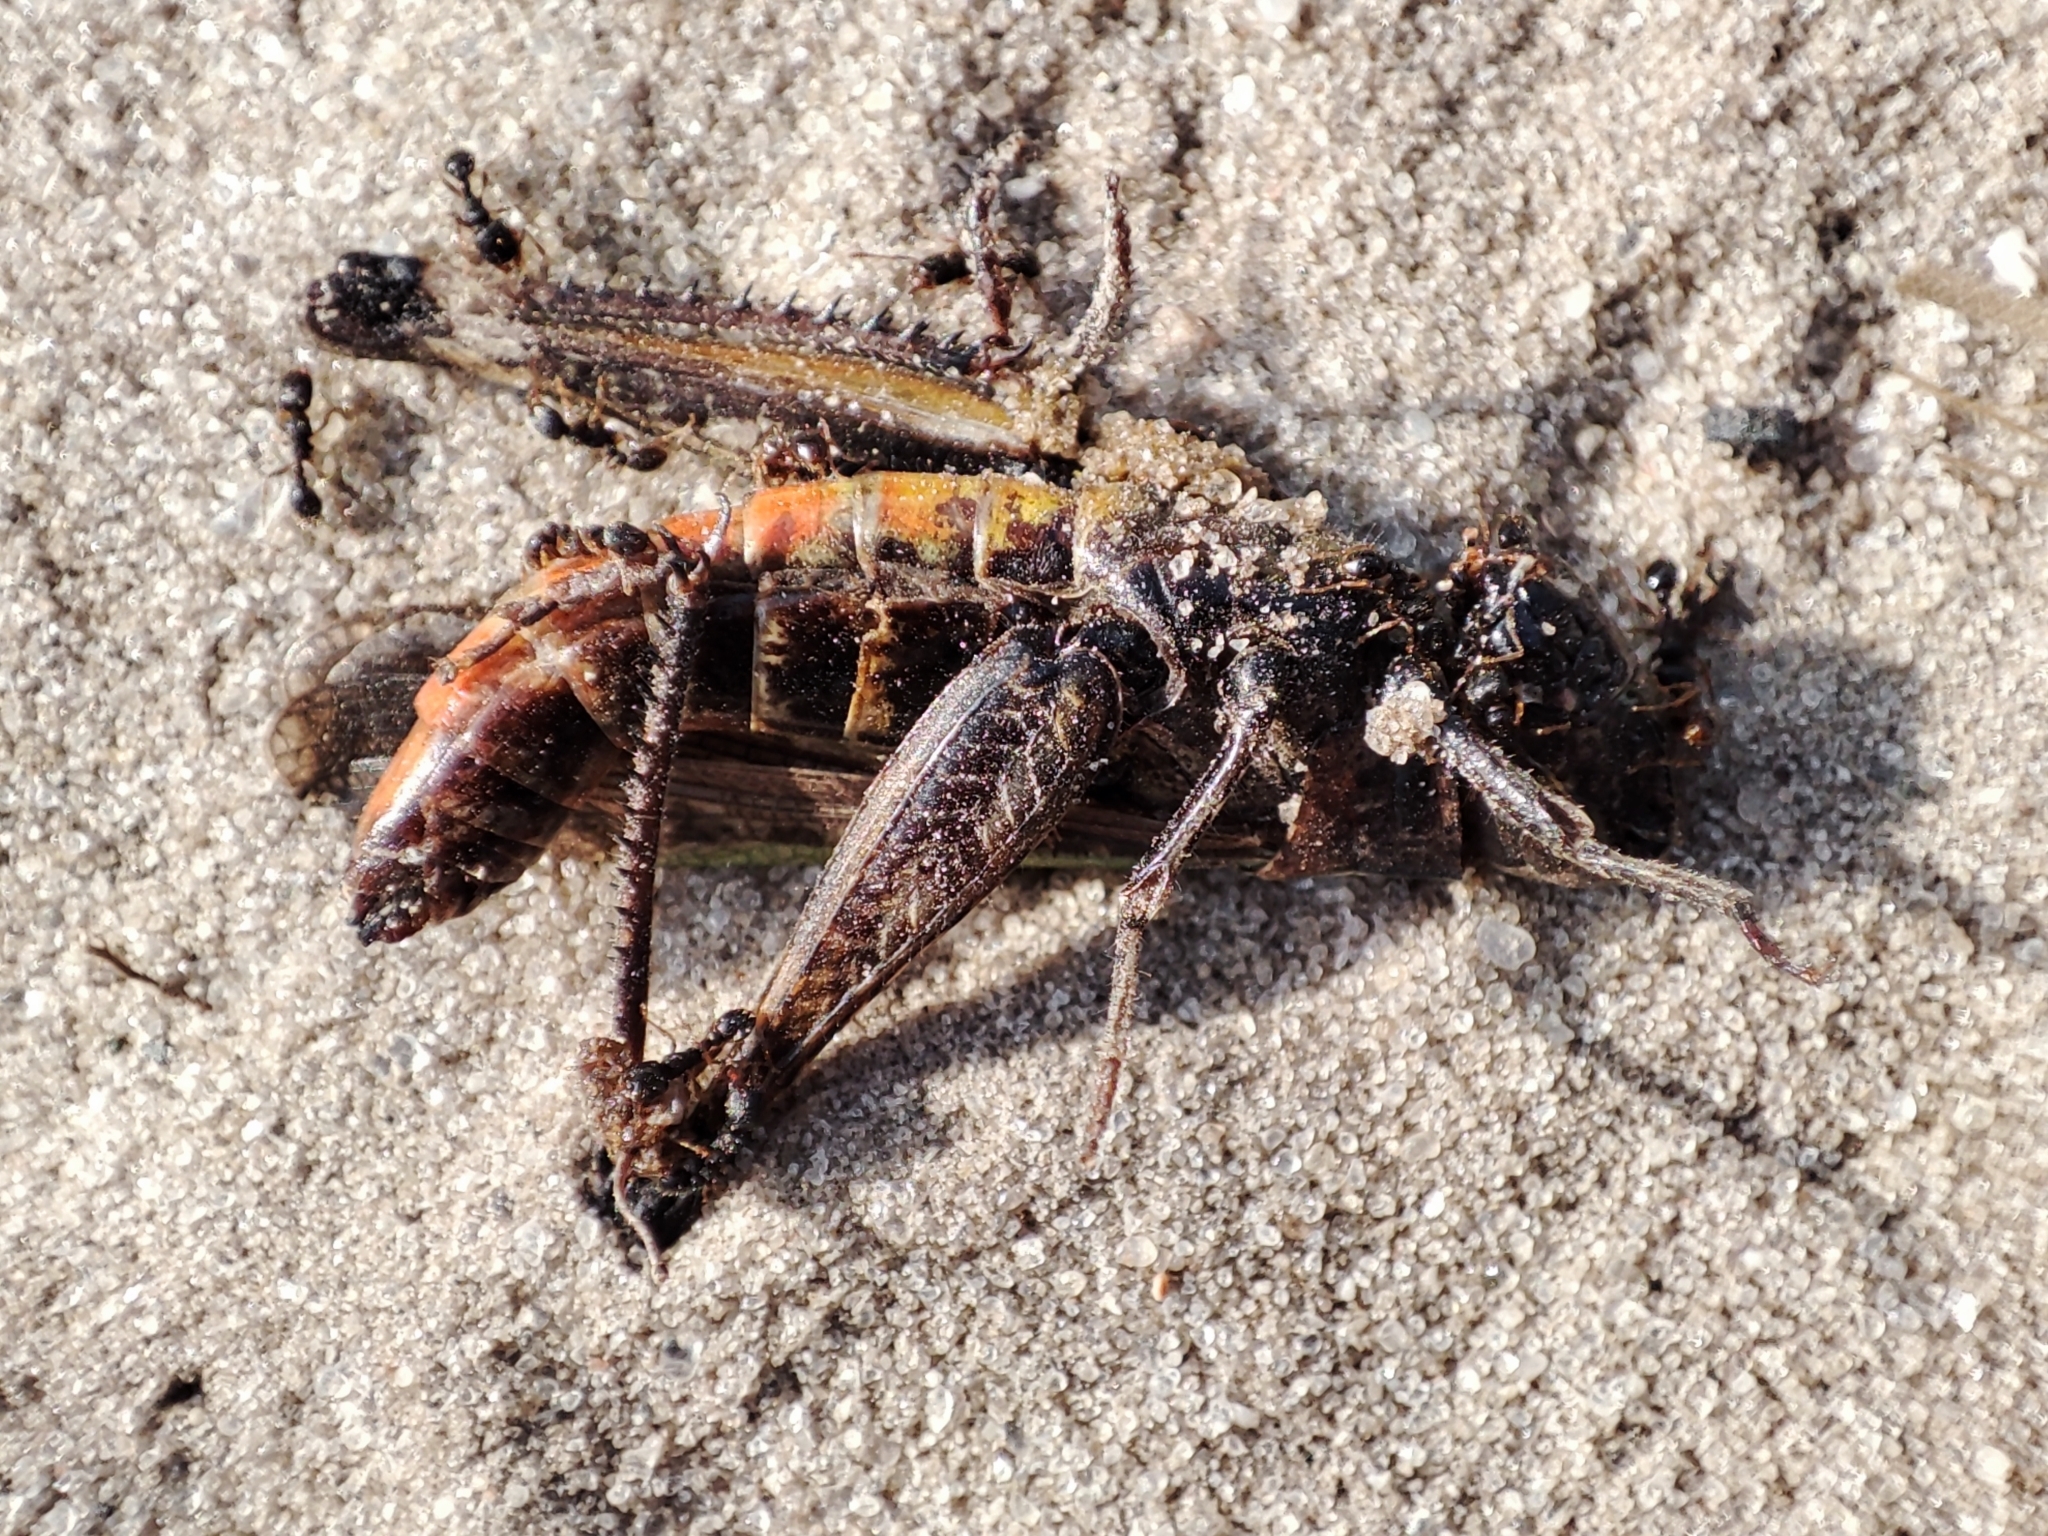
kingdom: Animalia
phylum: Arthropoda
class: Insecta
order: Orthoptera
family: Acrididae
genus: Omocestus
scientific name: Omocestus rufipes
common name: Woodland grasshopper
